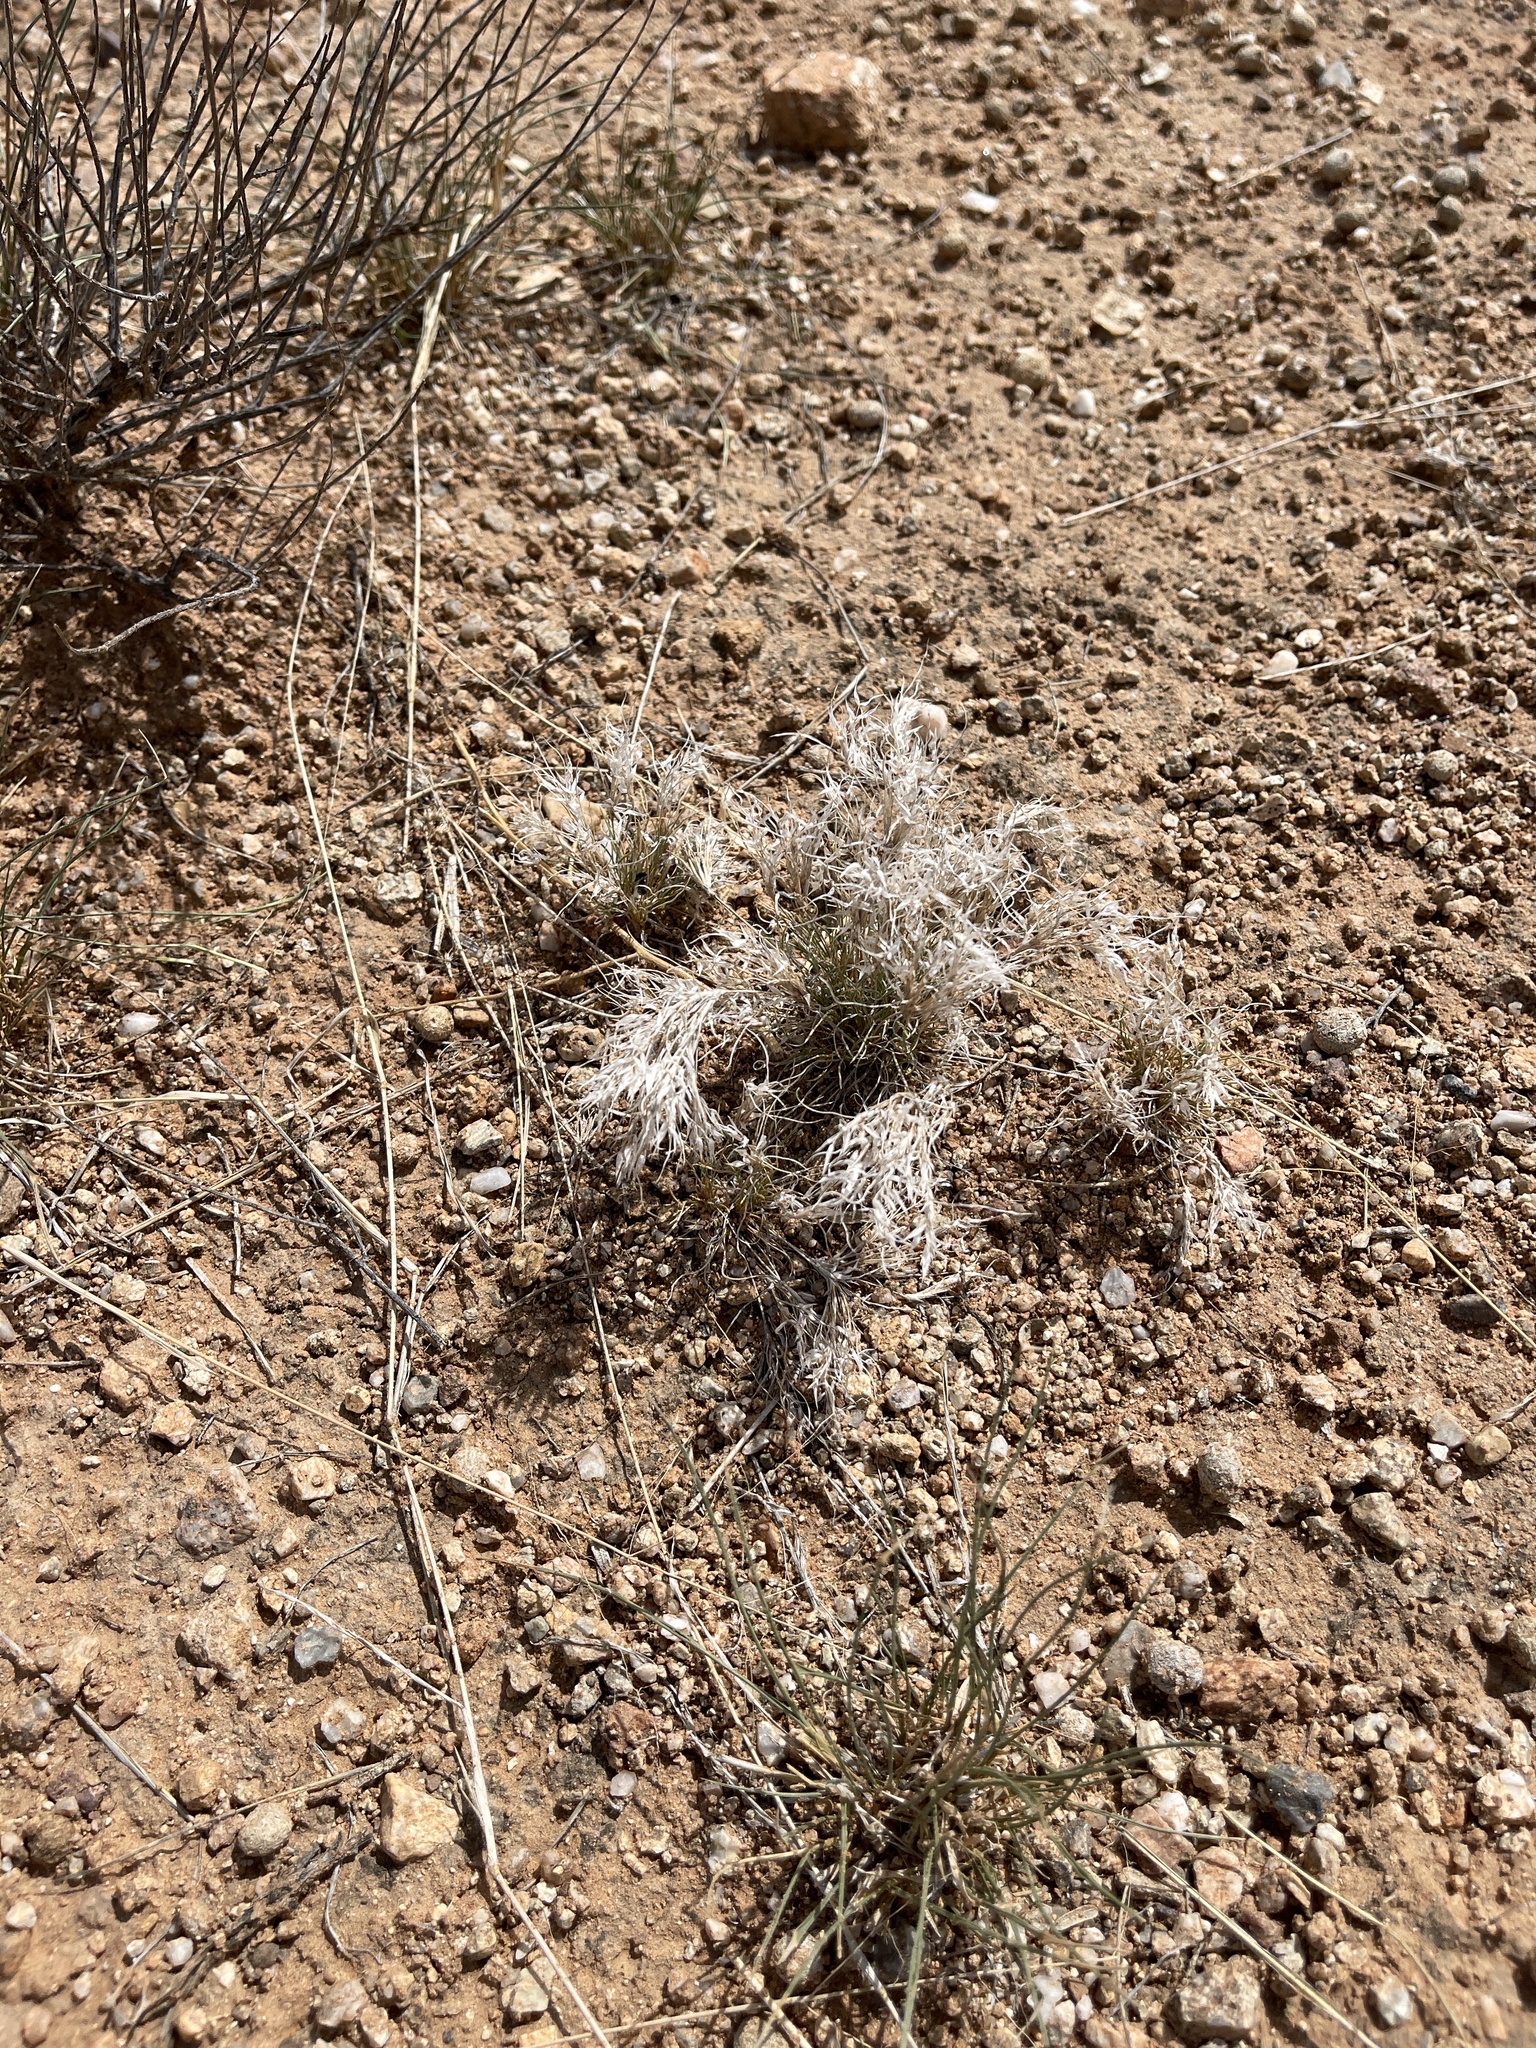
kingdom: Plantae
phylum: Tracheophyta
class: Liliopsida
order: Poales
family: Poaceae
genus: Dasyochloa
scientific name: Dasyochloa pulchella
